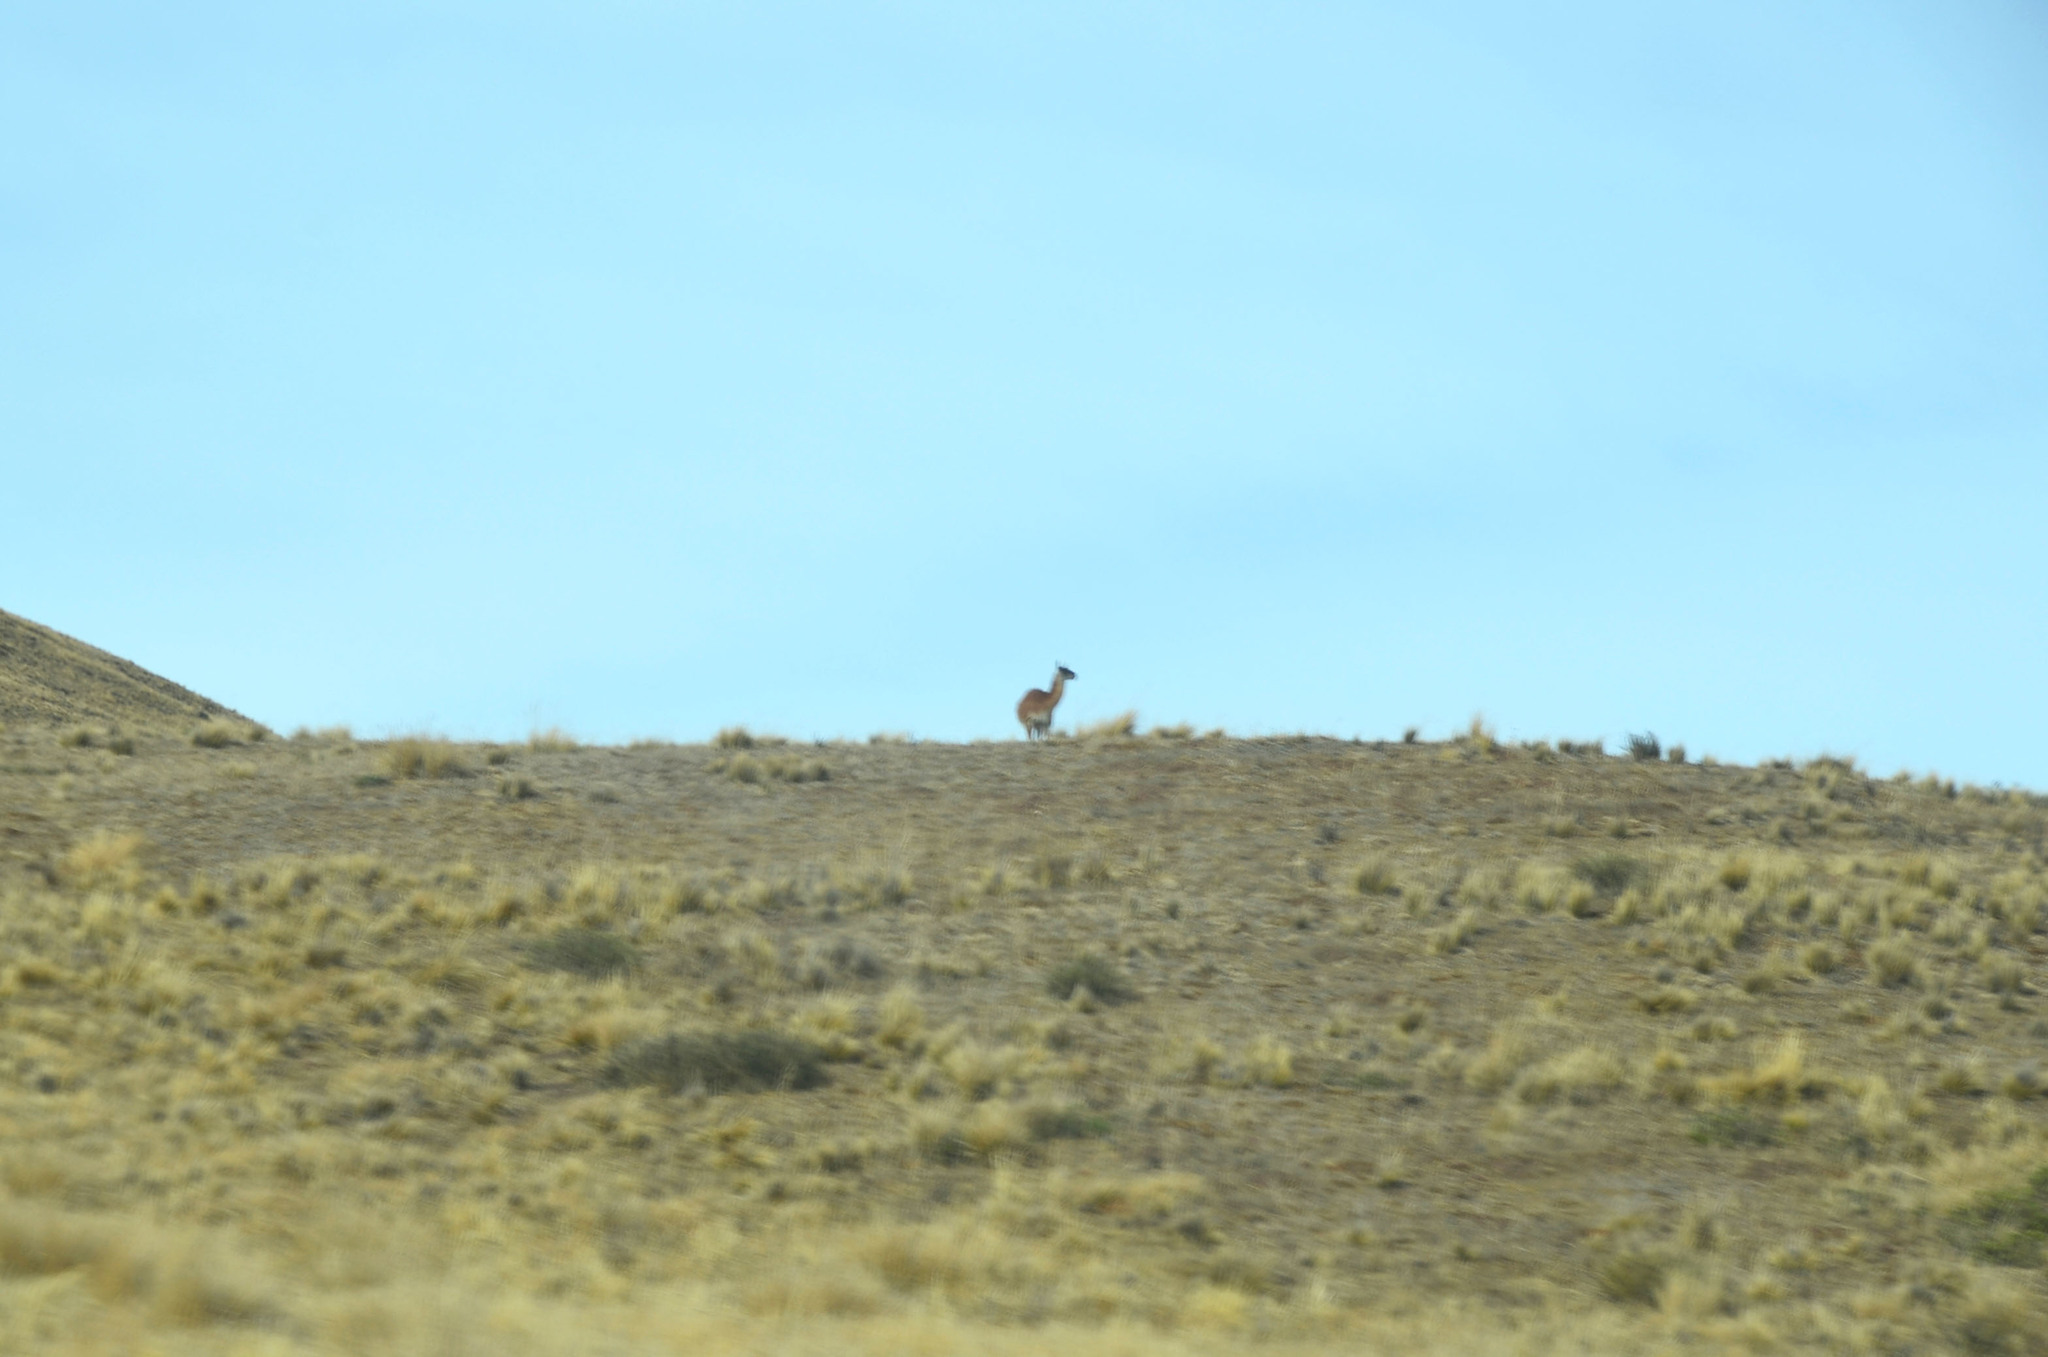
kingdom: Animalia
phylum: Chordata
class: Mammalia
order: Artiodactyla
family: Camelidae
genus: Lama
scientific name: Lama glama
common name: Llama
